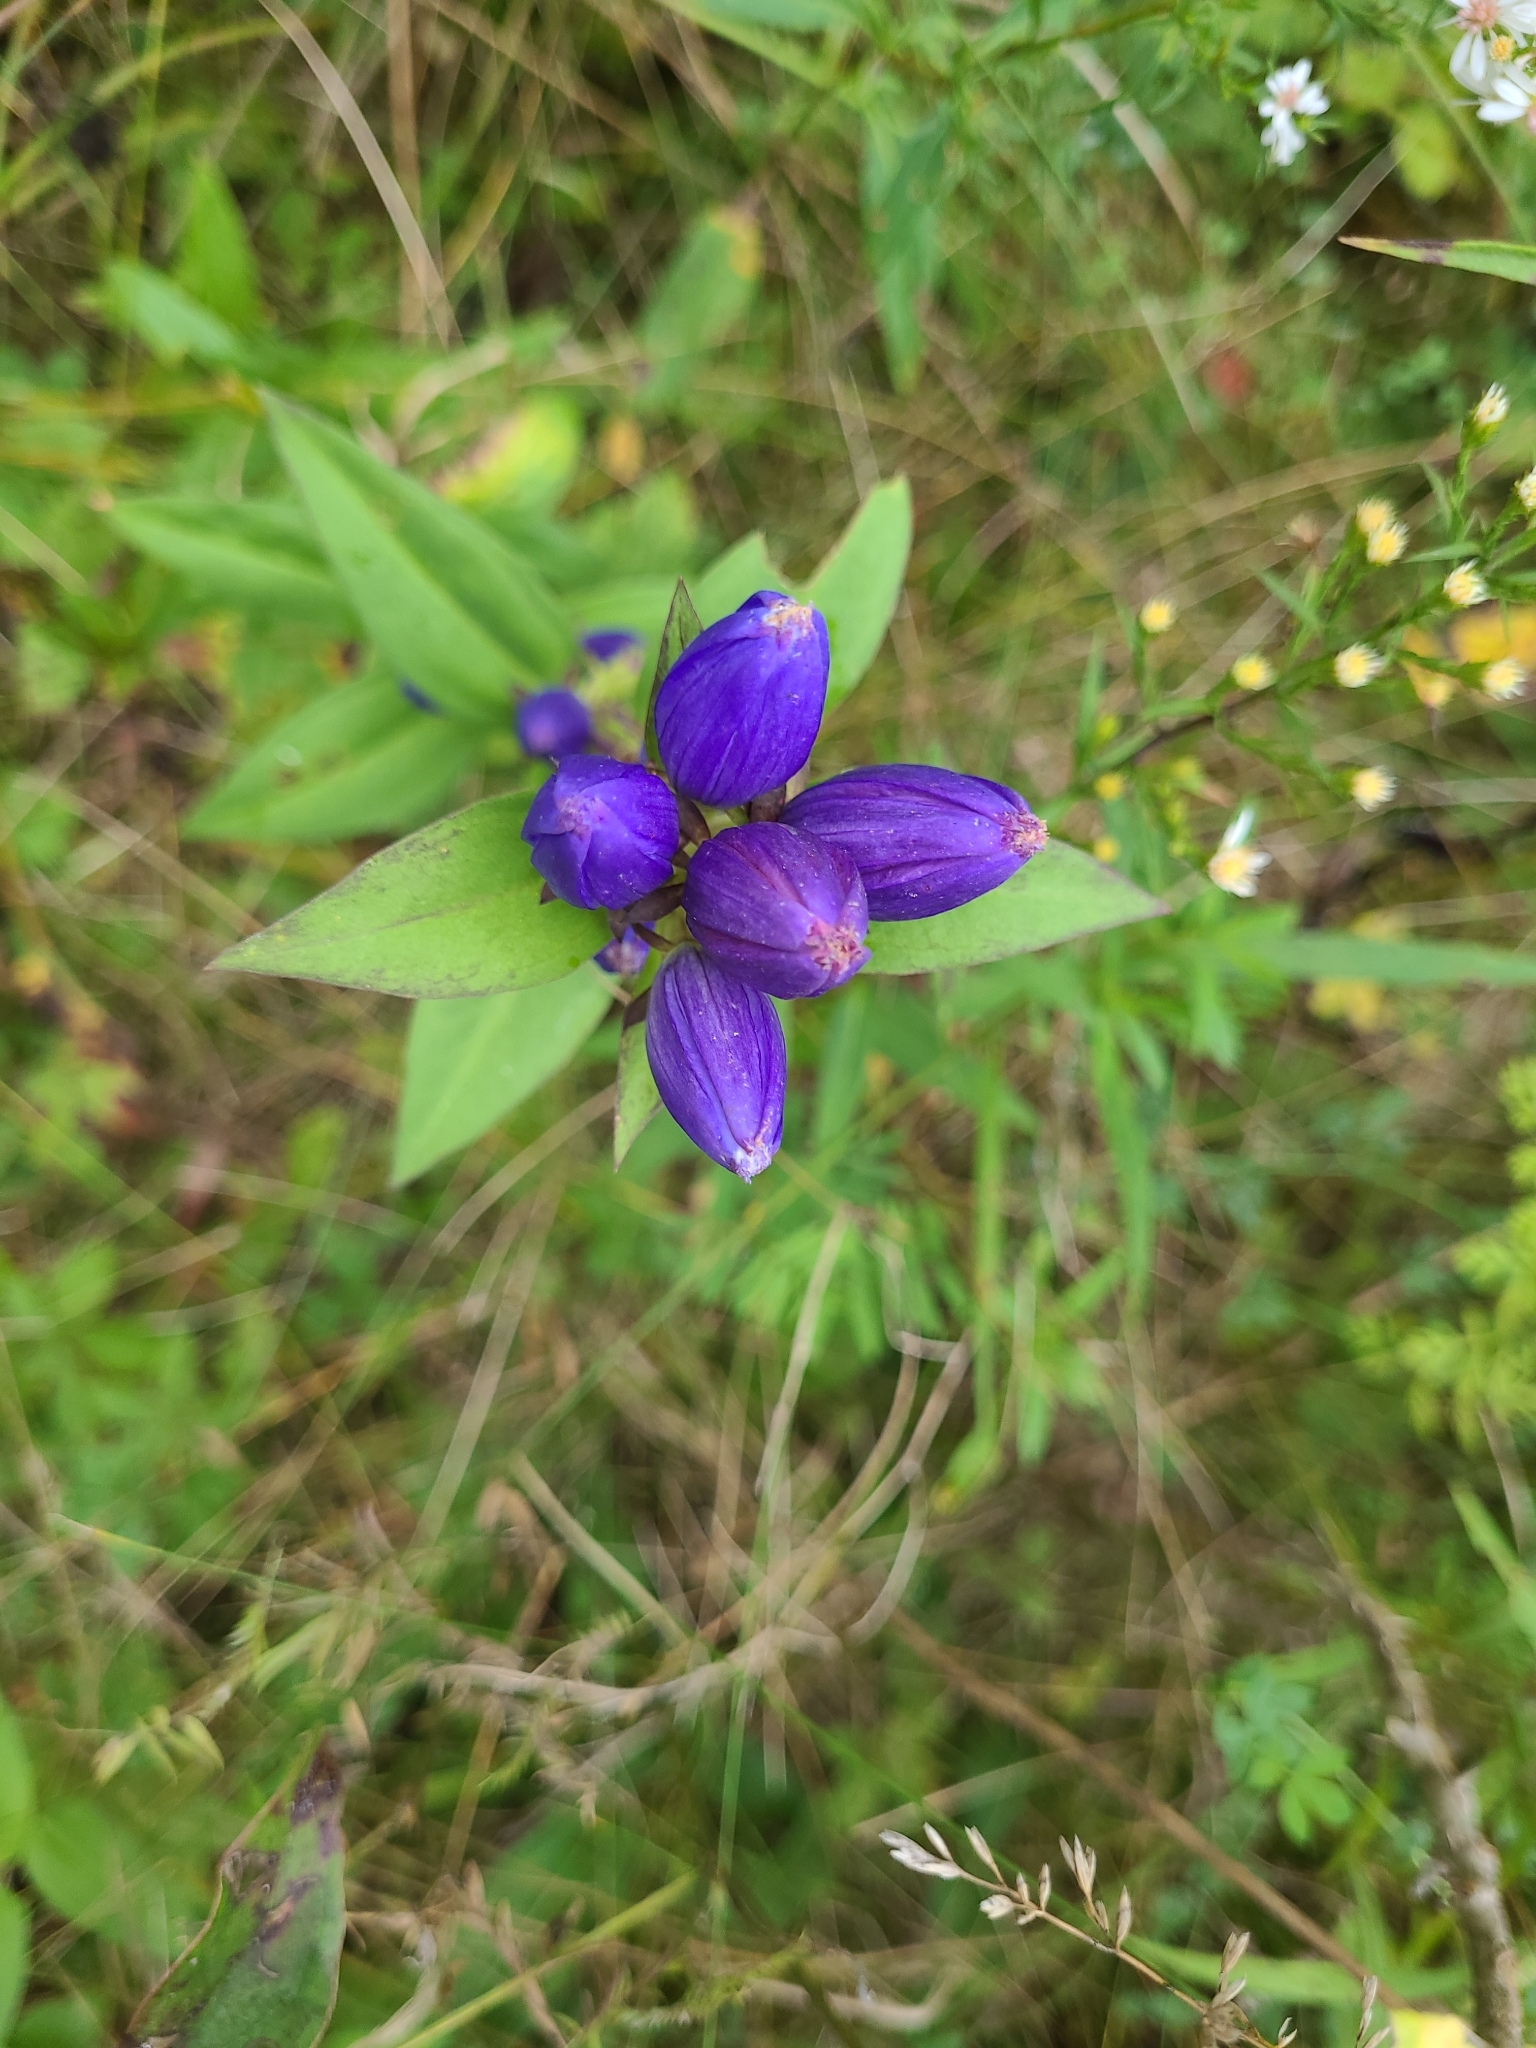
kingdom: Plantae
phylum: Tracheophyta
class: Magnoliopsida
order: Gentianales
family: Gentianaceae
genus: Gentiana
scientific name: Gentiana andrewsii
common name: Bottle gentian
